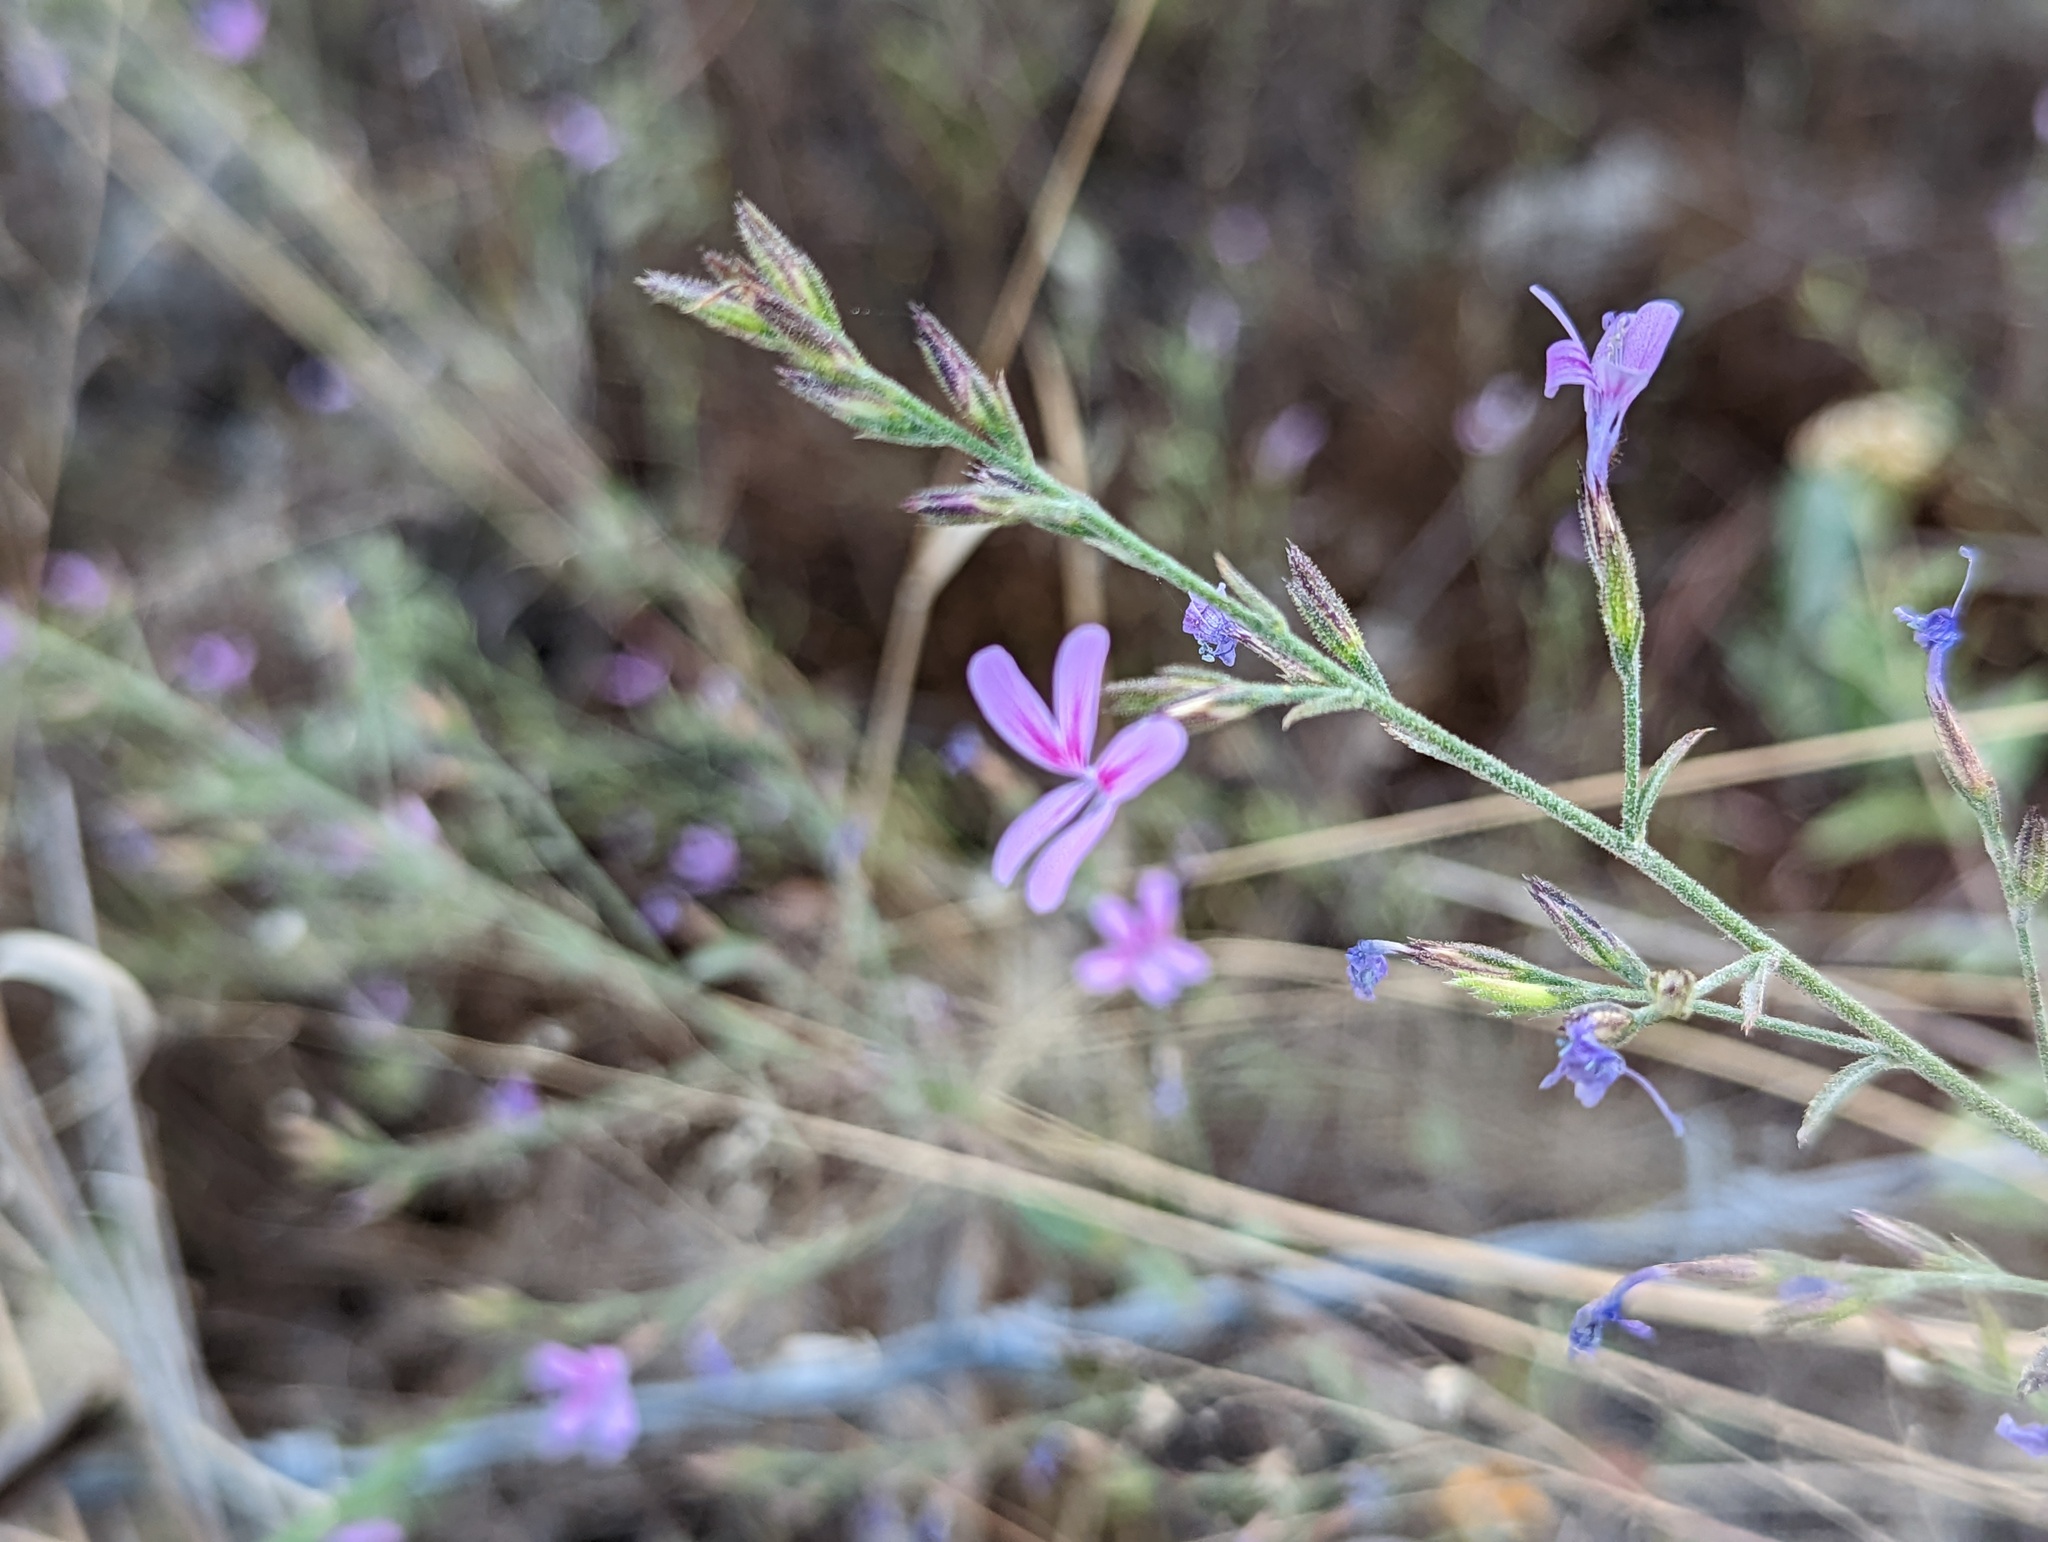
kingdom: Plantae
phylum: Tracheophyta
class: Magnoliopsida
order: Ericales
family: Polemoniaceae
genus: Loeselia
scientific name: Loeselia glandulosa
